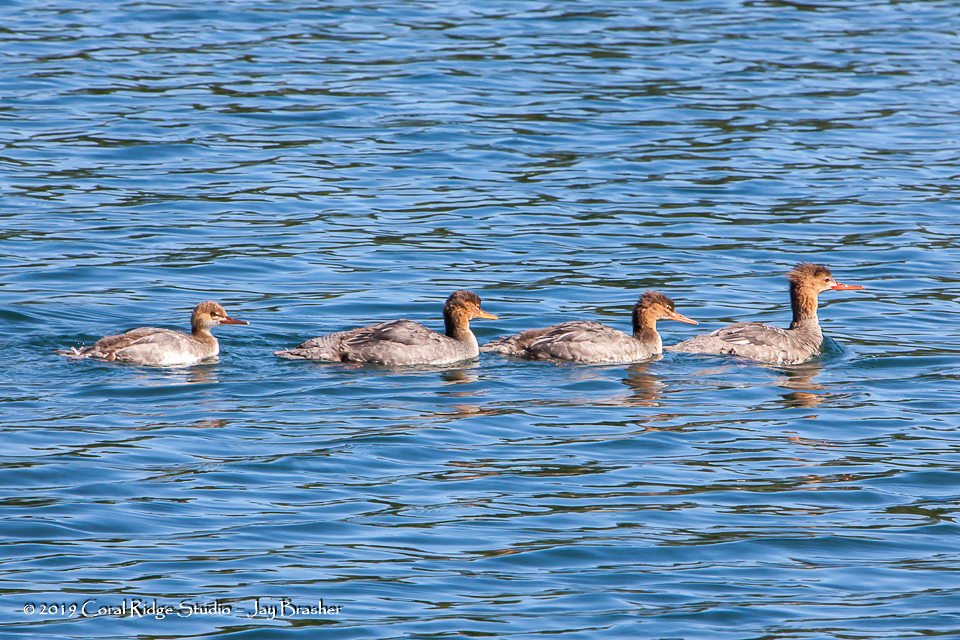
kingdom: Animalia
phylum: Chordata
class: Aves
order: Anseriformes
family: Anatidae
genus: Mergus
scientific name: Mergus serrator
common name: Red-breasted merganser
